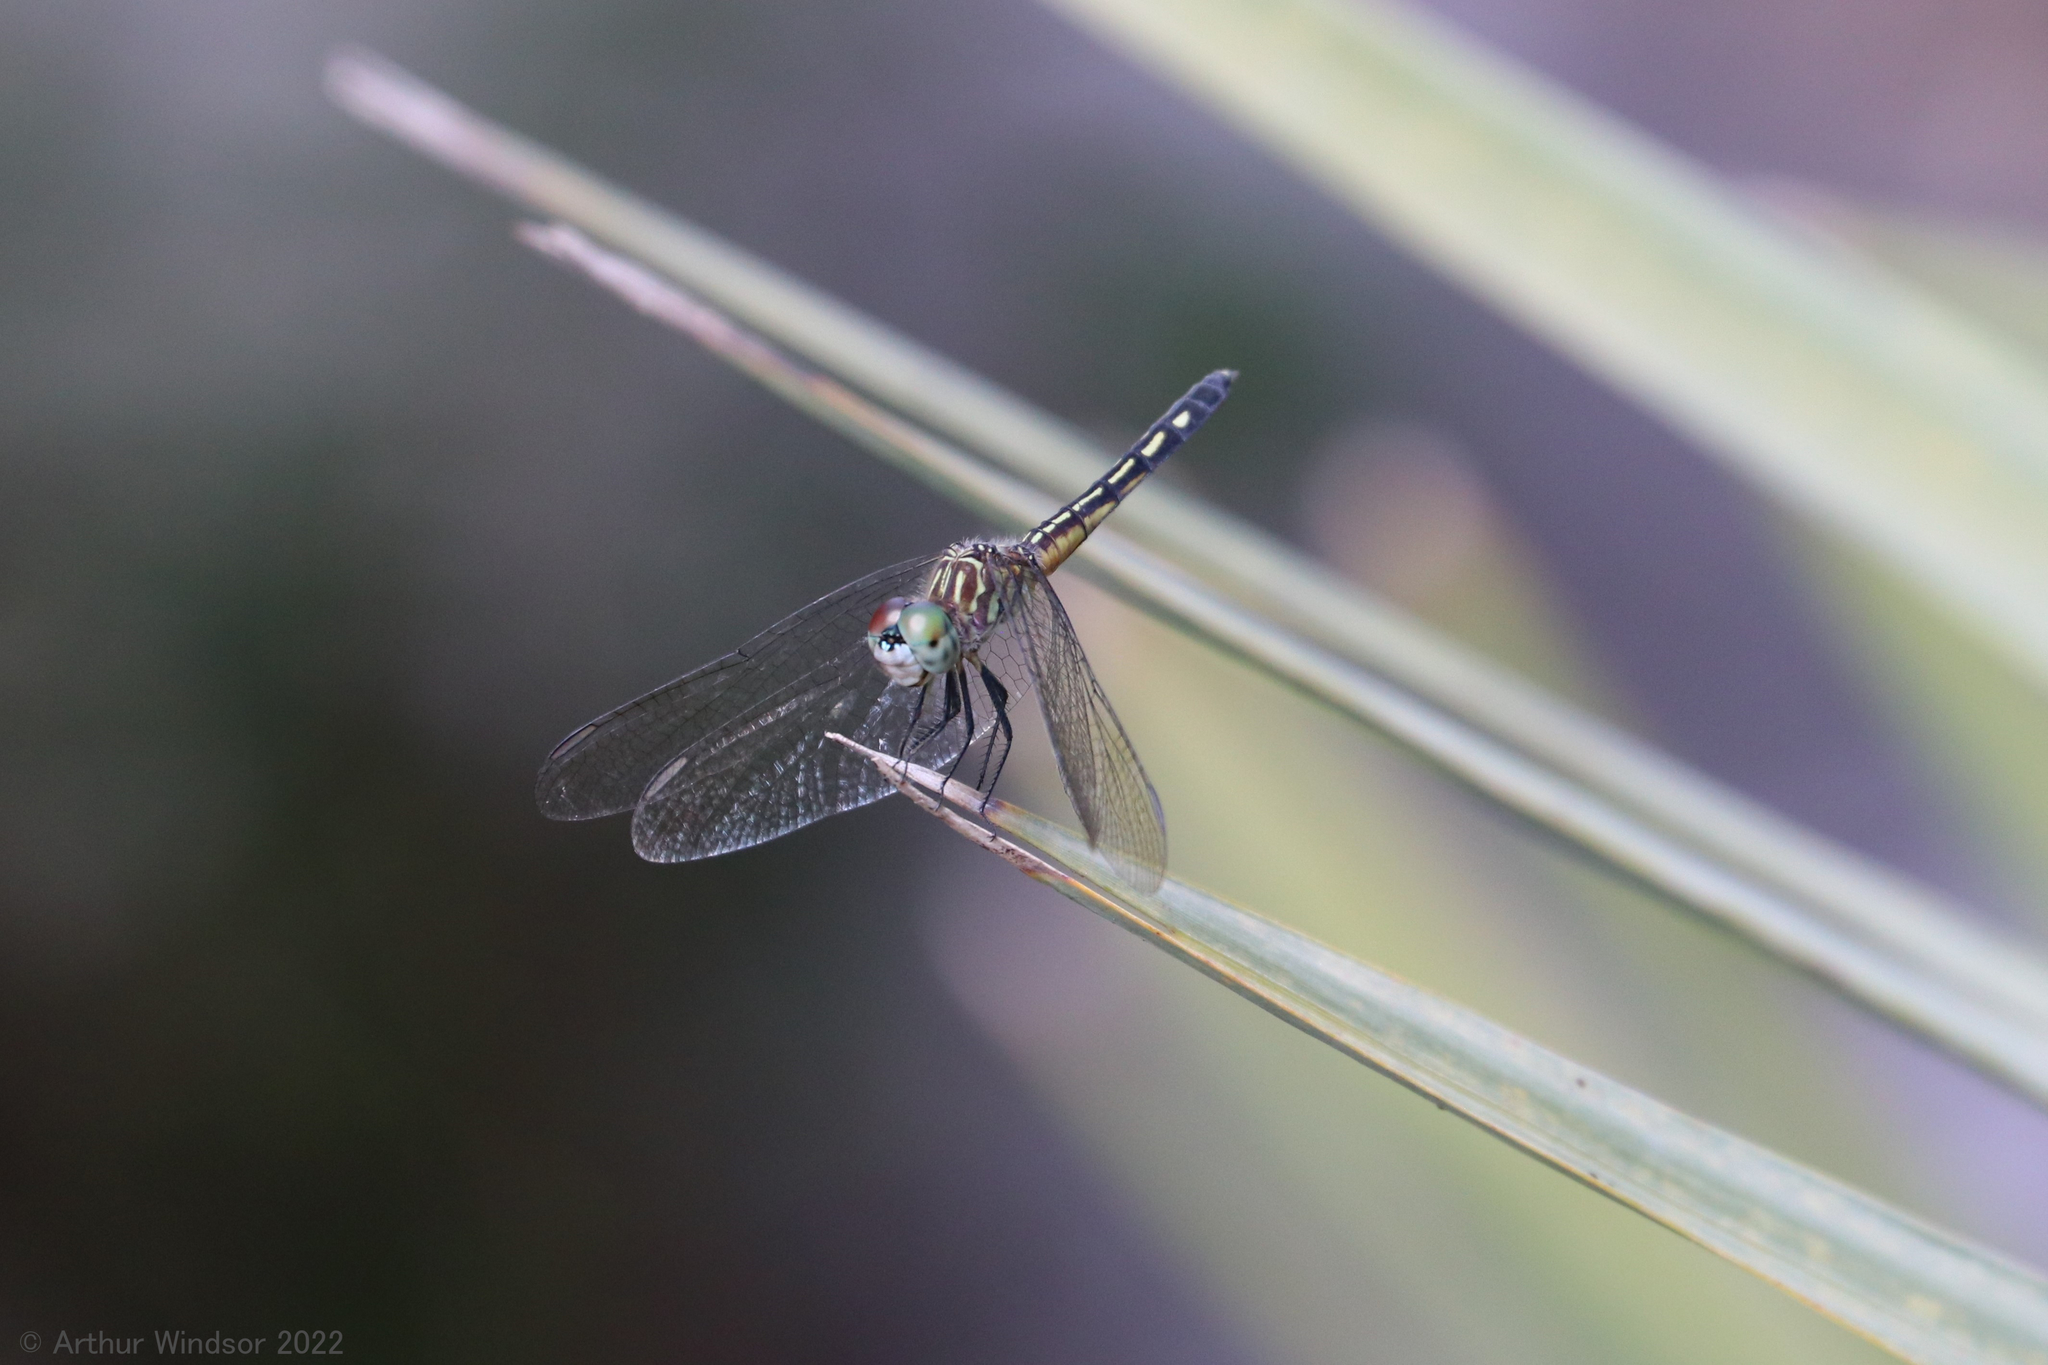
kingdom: Animalia
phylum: Arthropoda
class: Insecta
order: Odonata
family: Libellulidae
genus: Pachydiplax
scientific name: Pachydiplax longipennis
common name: Blue dasher
